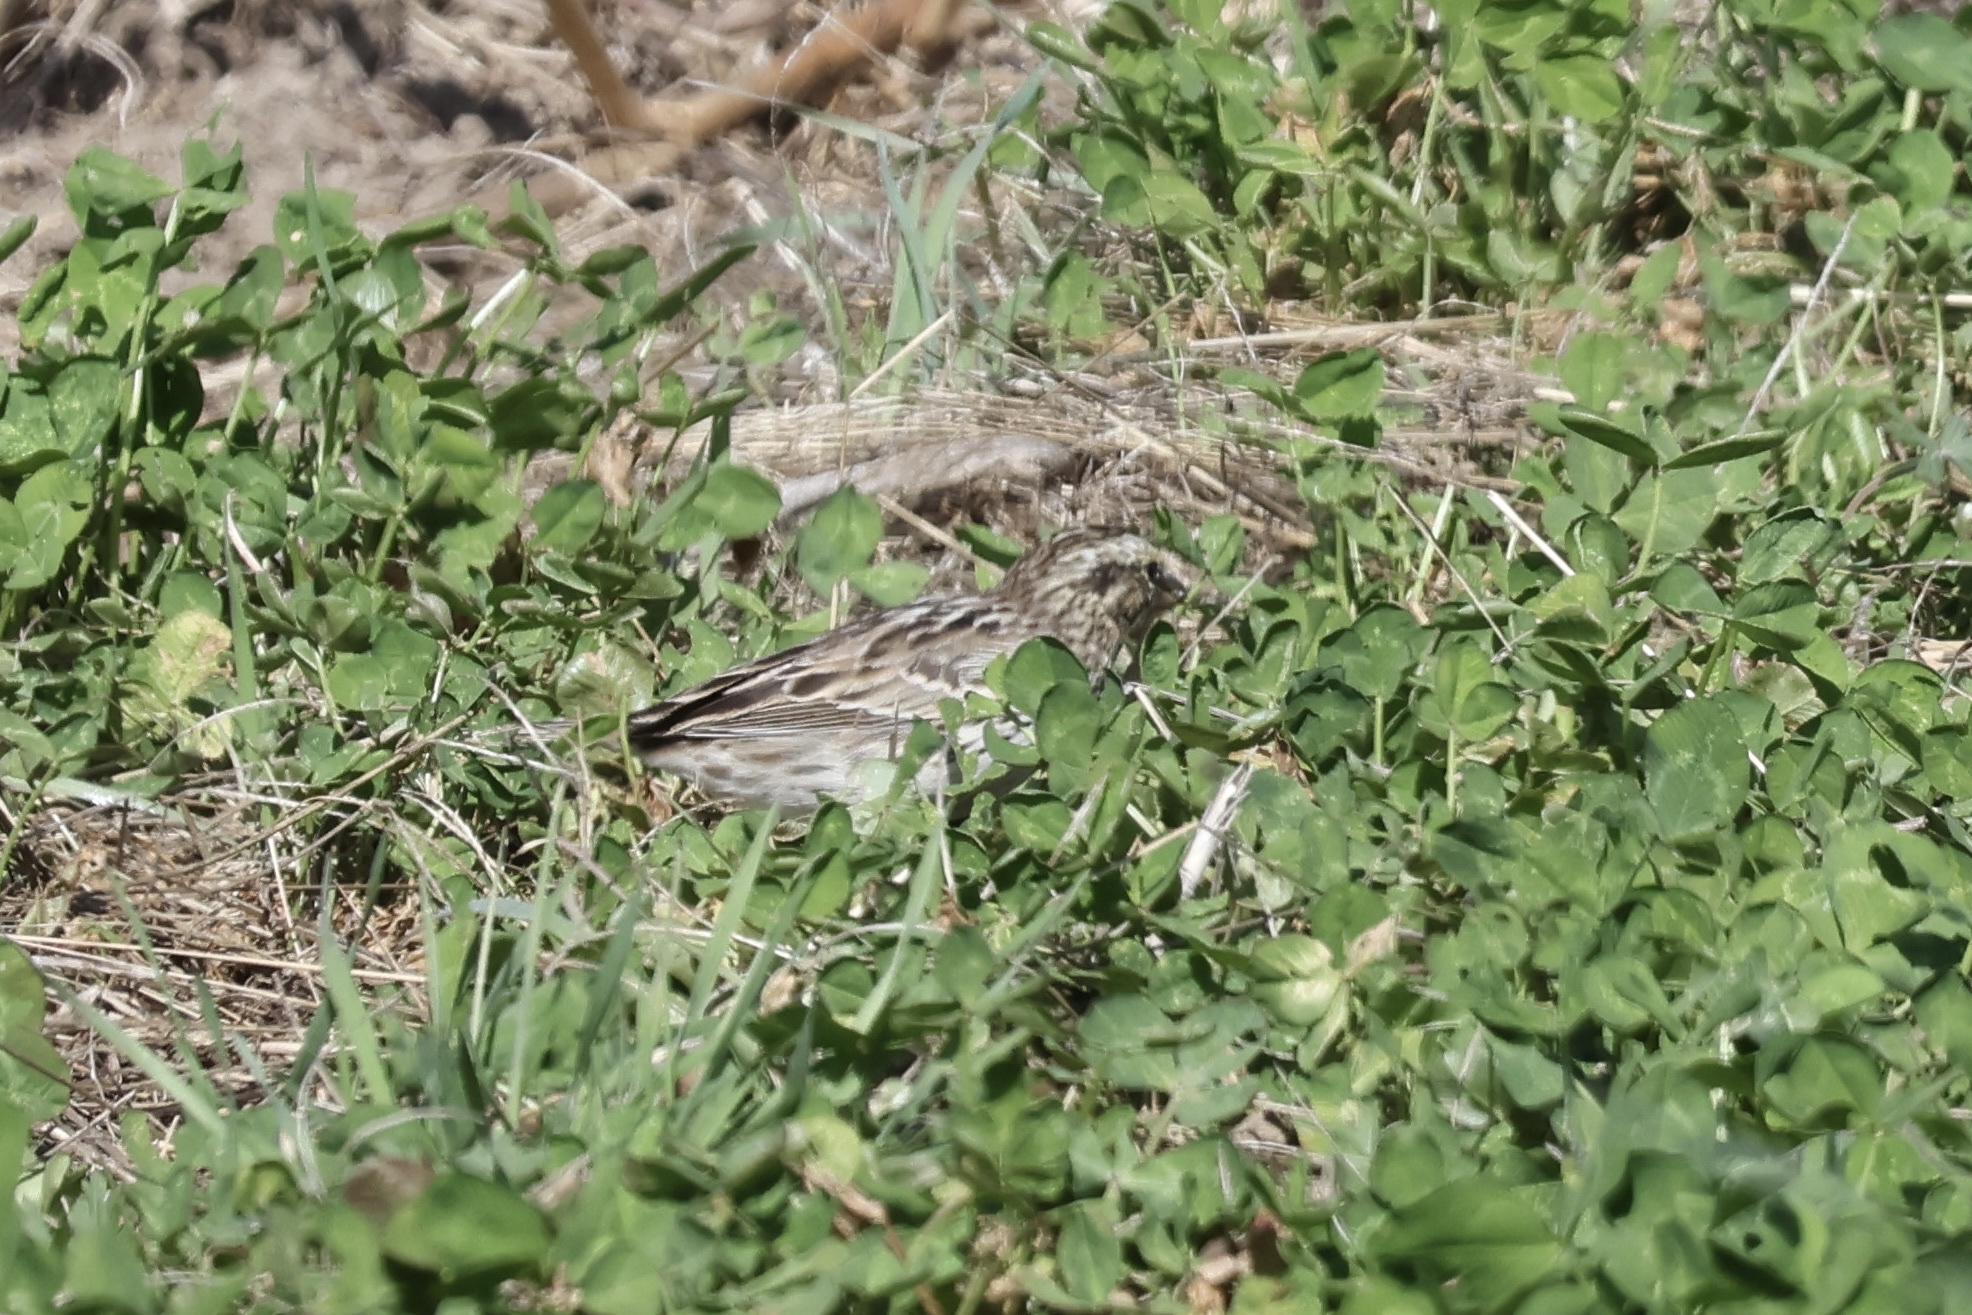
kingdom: Animalia
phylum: Chordata
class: Aves
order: Passeriformes
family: Passerellidae
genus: Passerculus
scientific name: Passerculus sandwichensis
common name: Savannah sparrow
